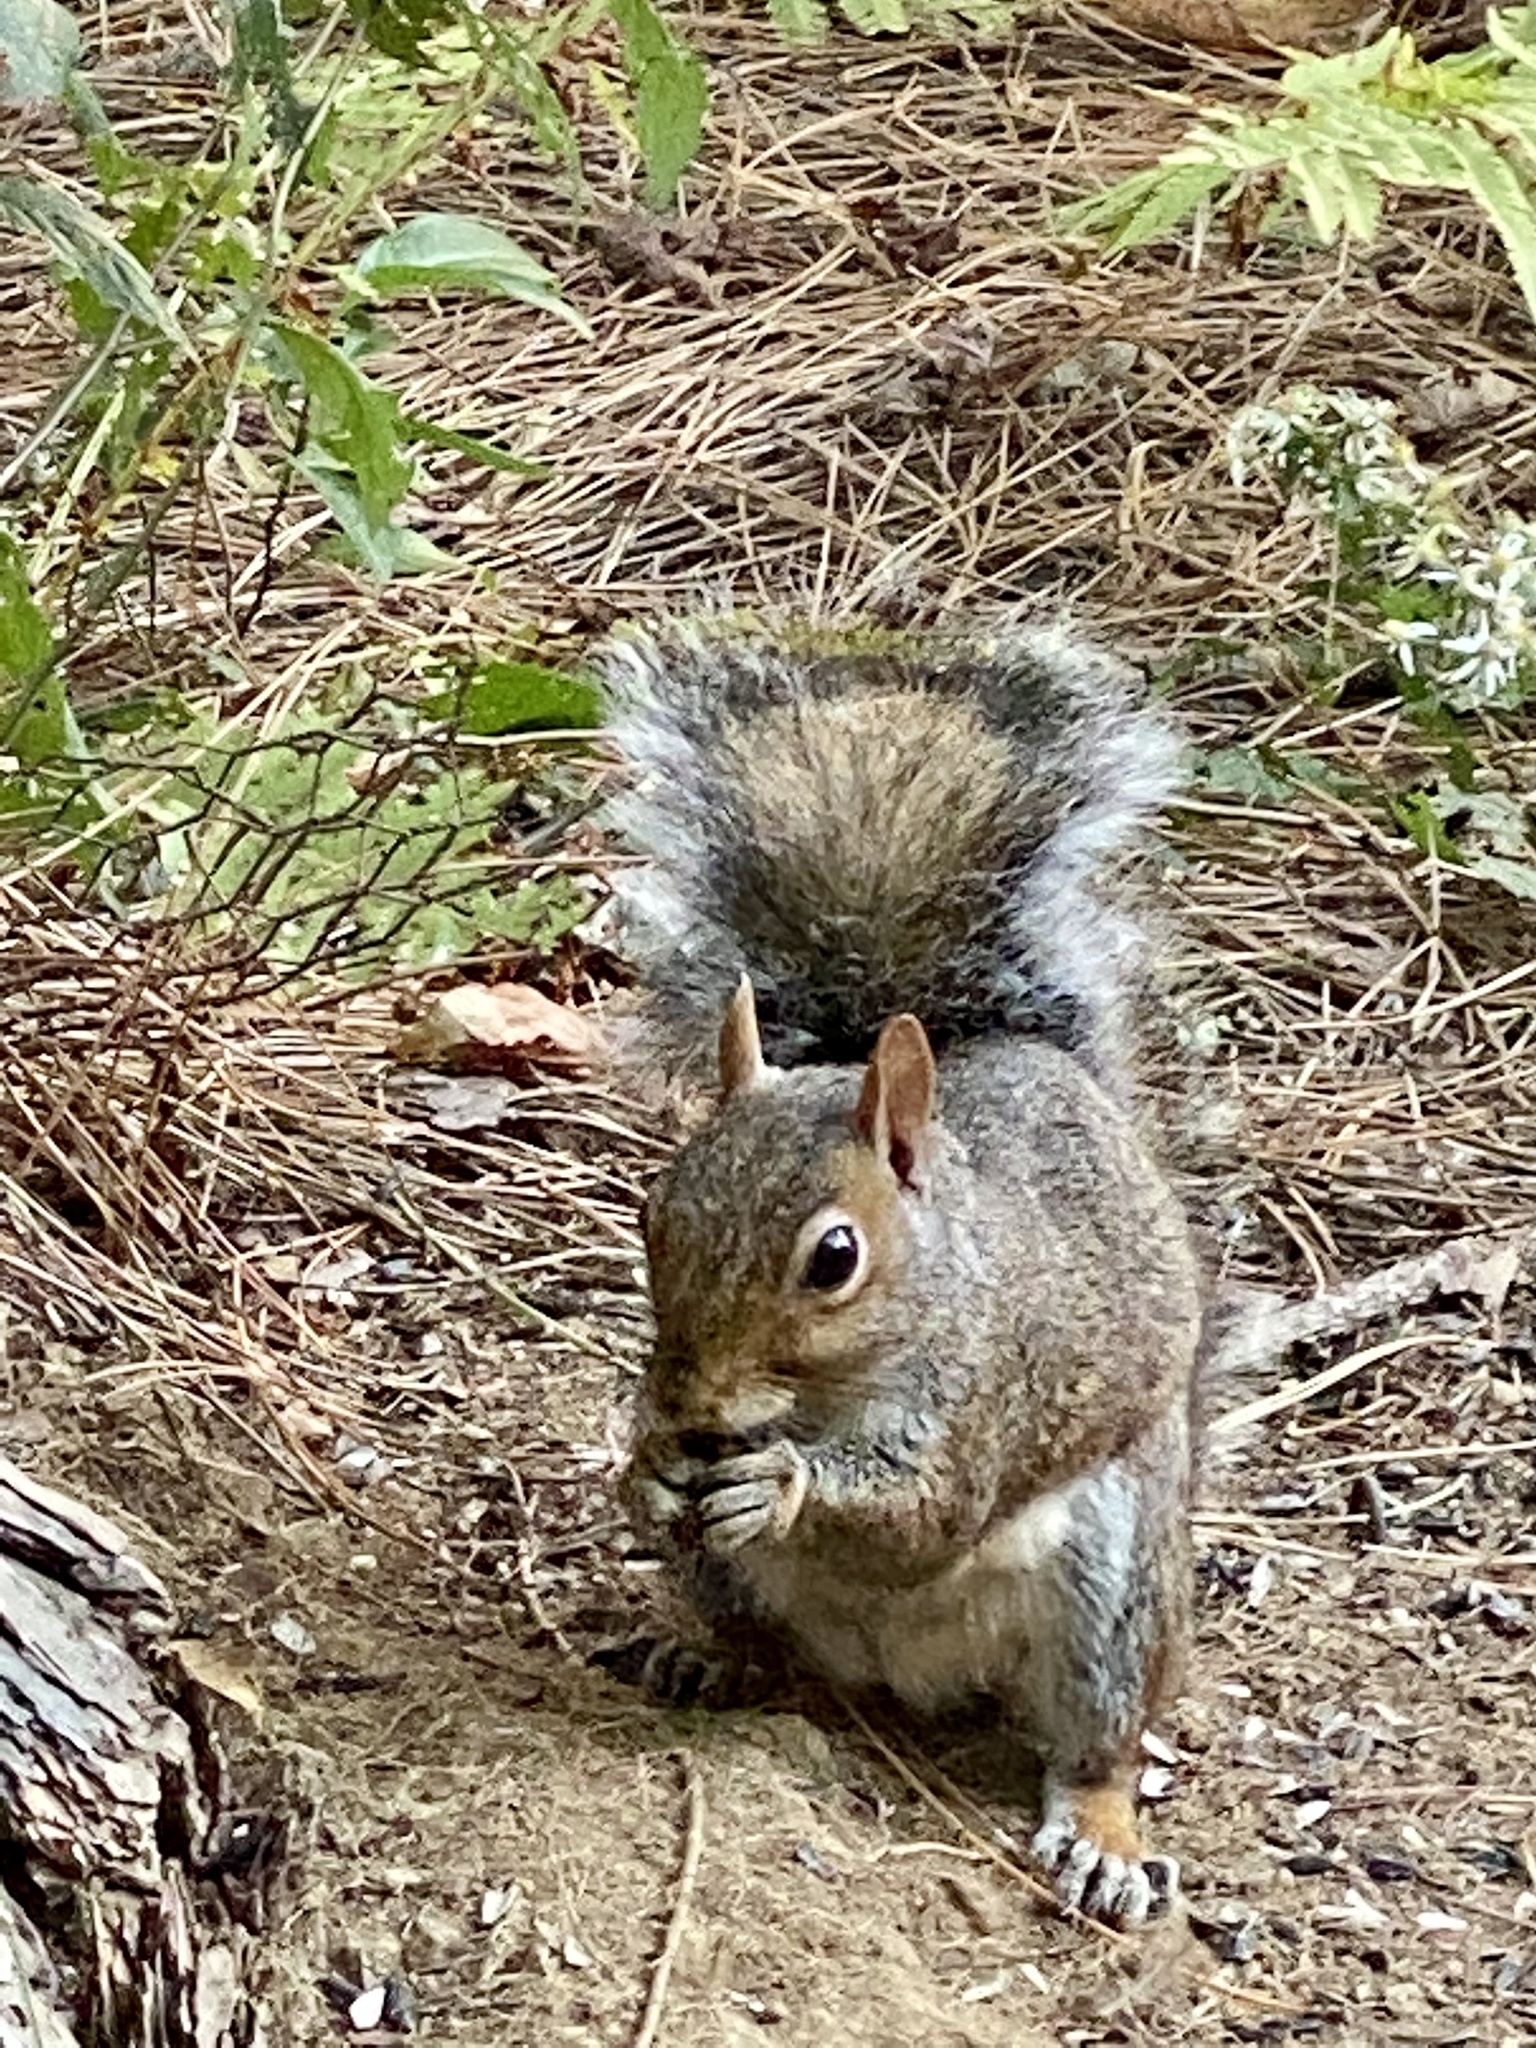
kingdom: Animalia
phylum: Chordata
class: Mammalia
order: Rodentia
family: Sciuridae
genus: Sciurus
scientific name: Sciurus carolinensis
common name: Eastern gray squirrel
